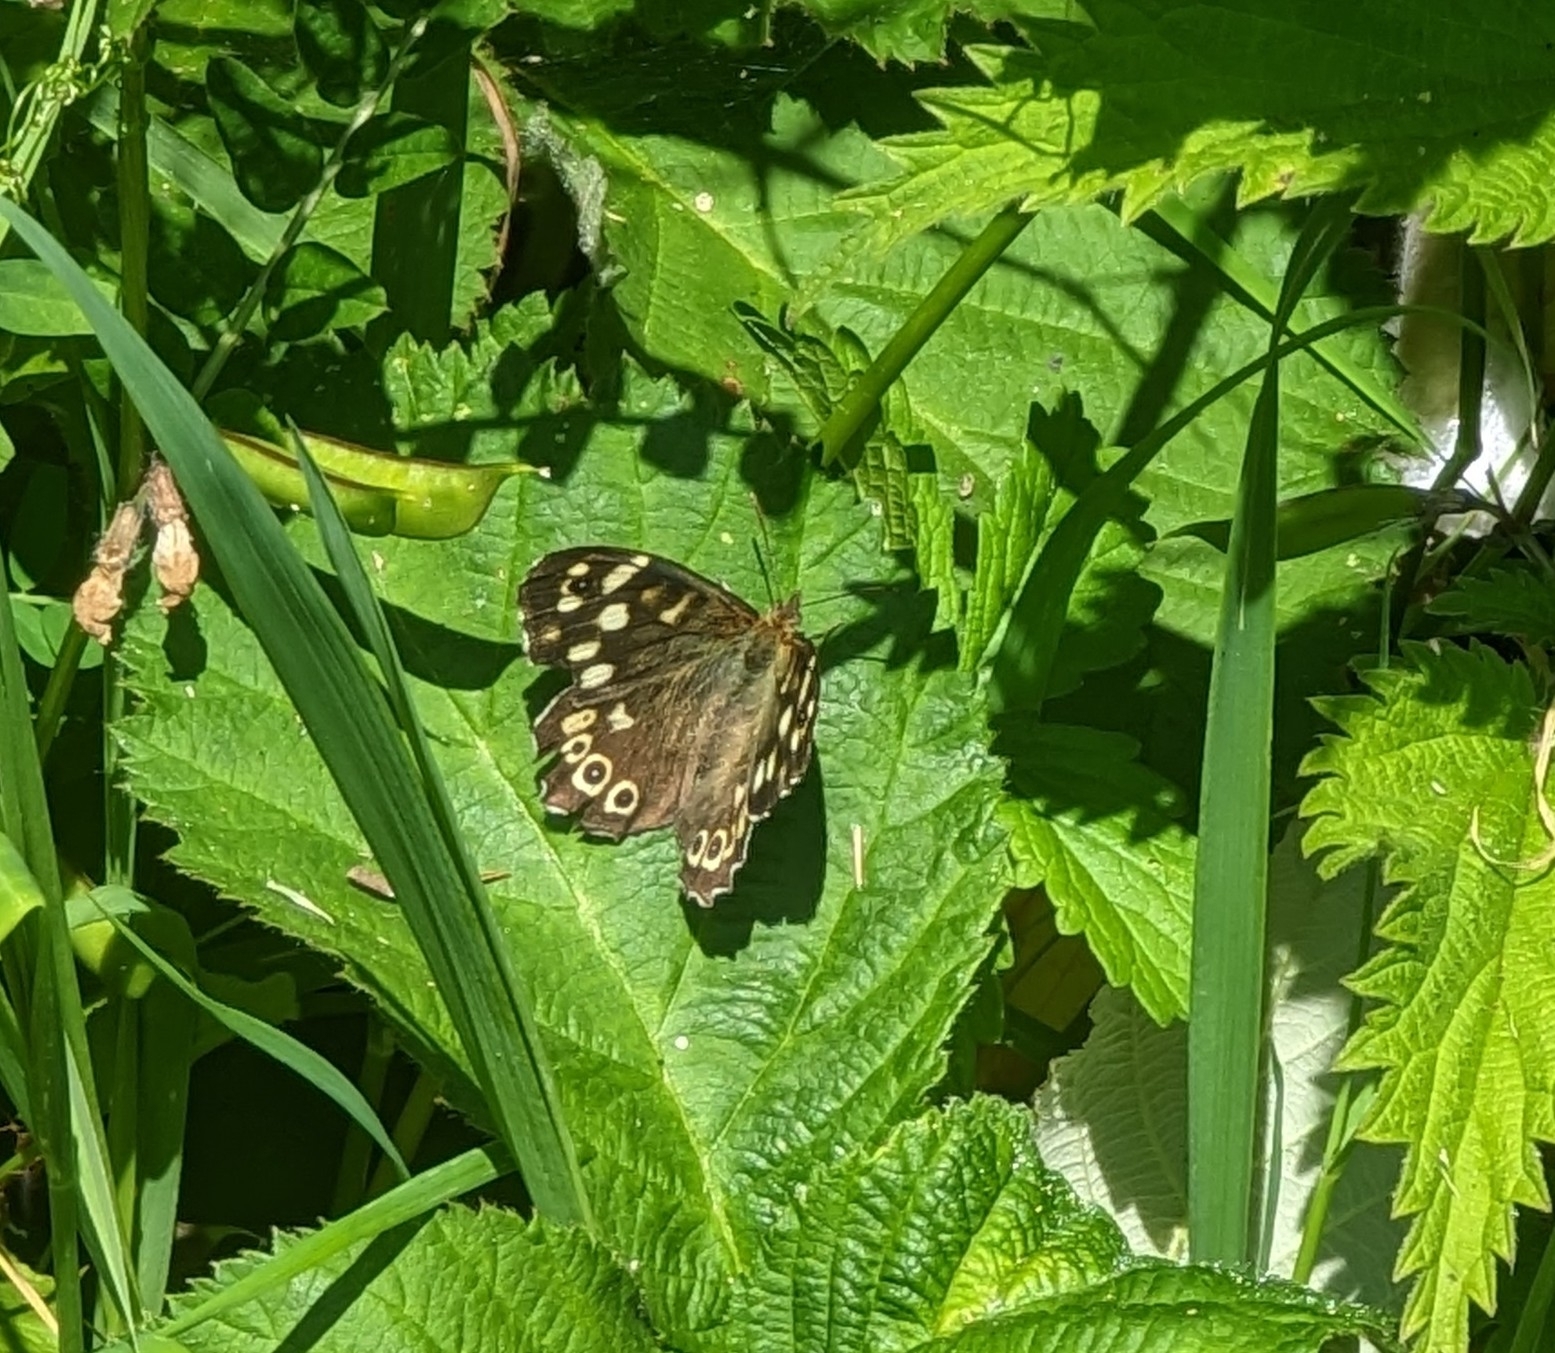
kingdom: Animalia
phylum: Arthropoda
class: Insecta
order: Lepidoptera
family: Nymphalidae
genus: Pararge
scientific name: Pararge aegeria
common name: Speckled wood
